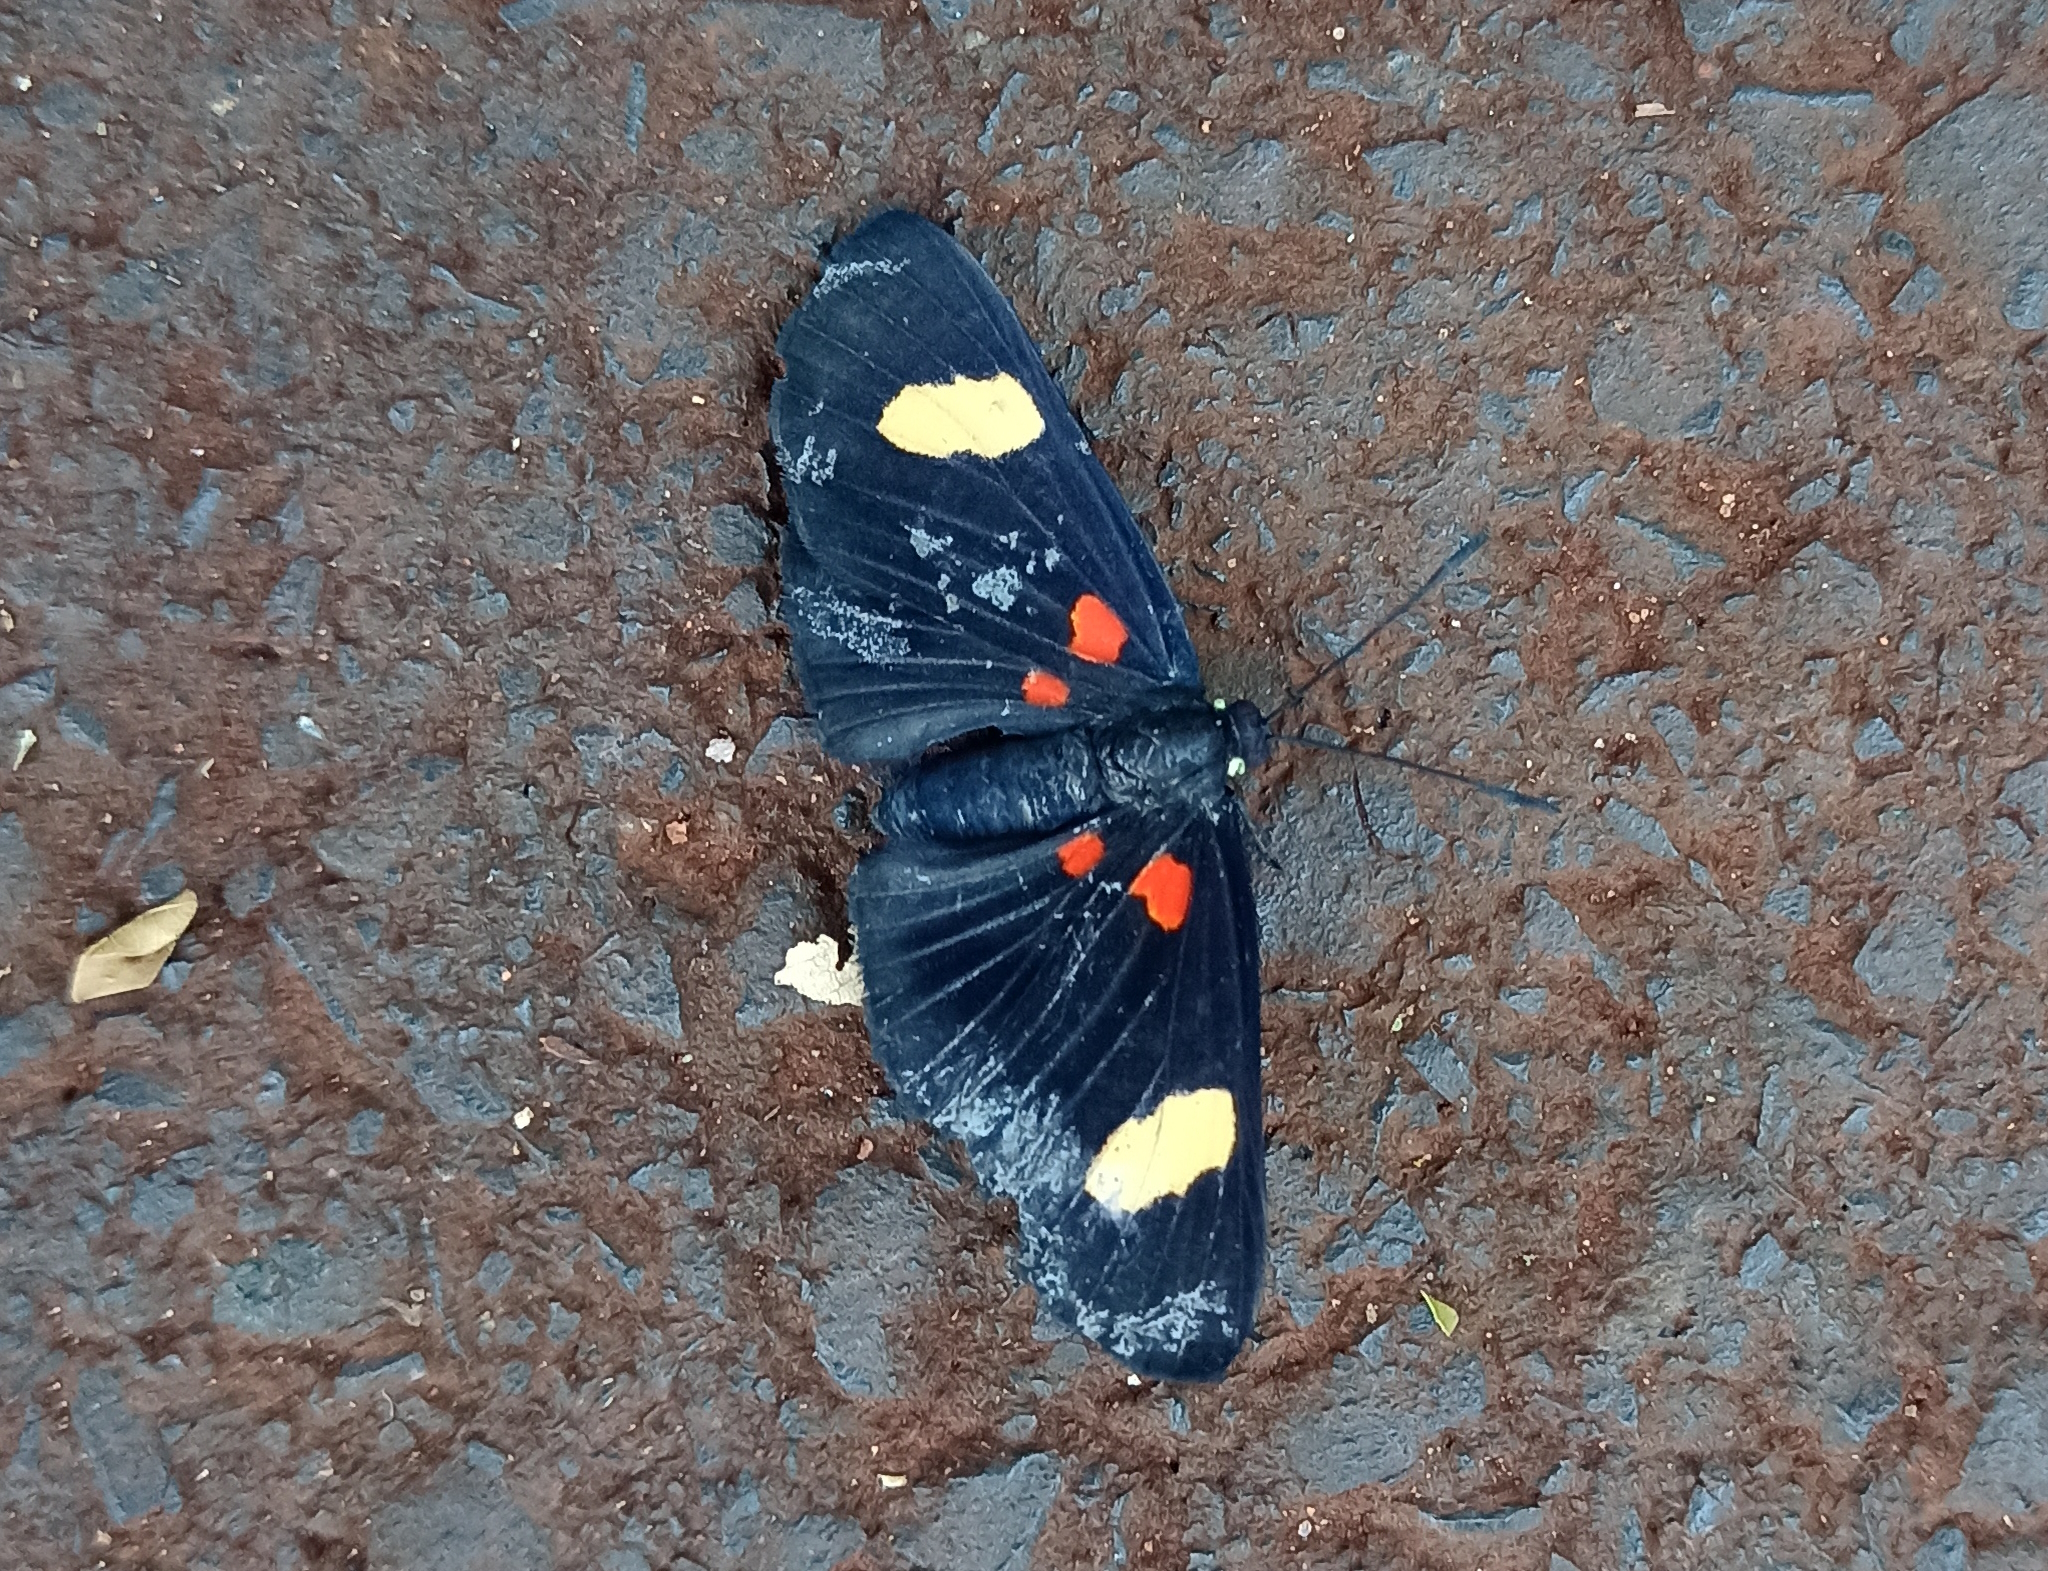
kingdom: Animalia
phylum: Arthropoda
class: Insecta
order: Lepidoptera
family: Lycaenidae
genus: Melanis
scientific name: Melanis aegates
